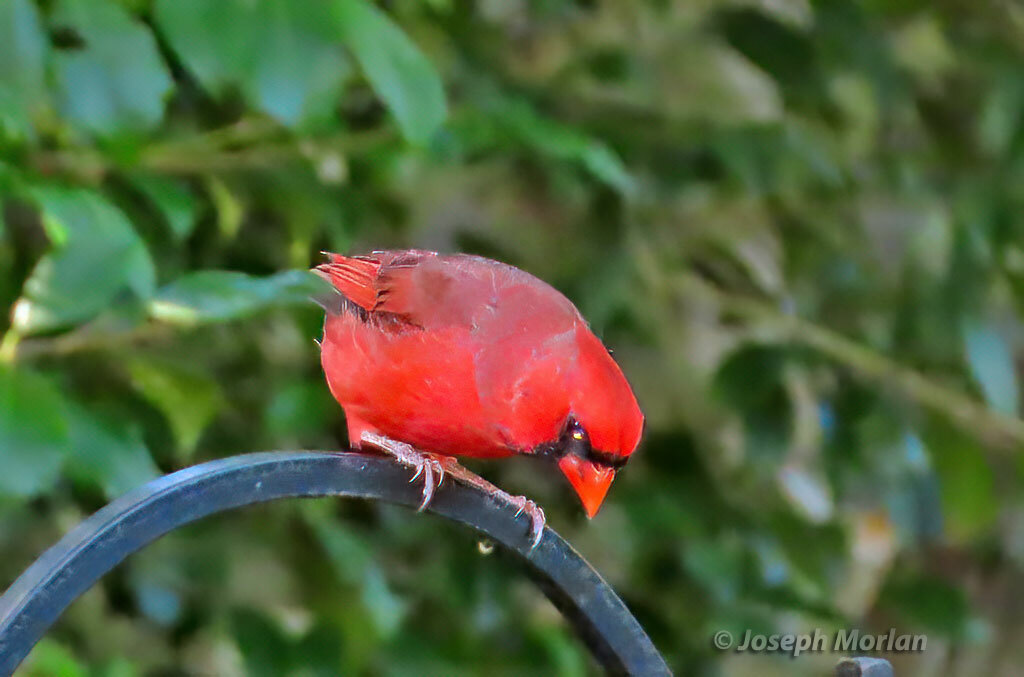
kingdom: Animalia
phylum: Chordata
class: Aves
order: Passeriformes
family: Cardinalidae
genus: Cardinalis
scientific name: Cardinalis cardinalis
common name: Northern cardinal
